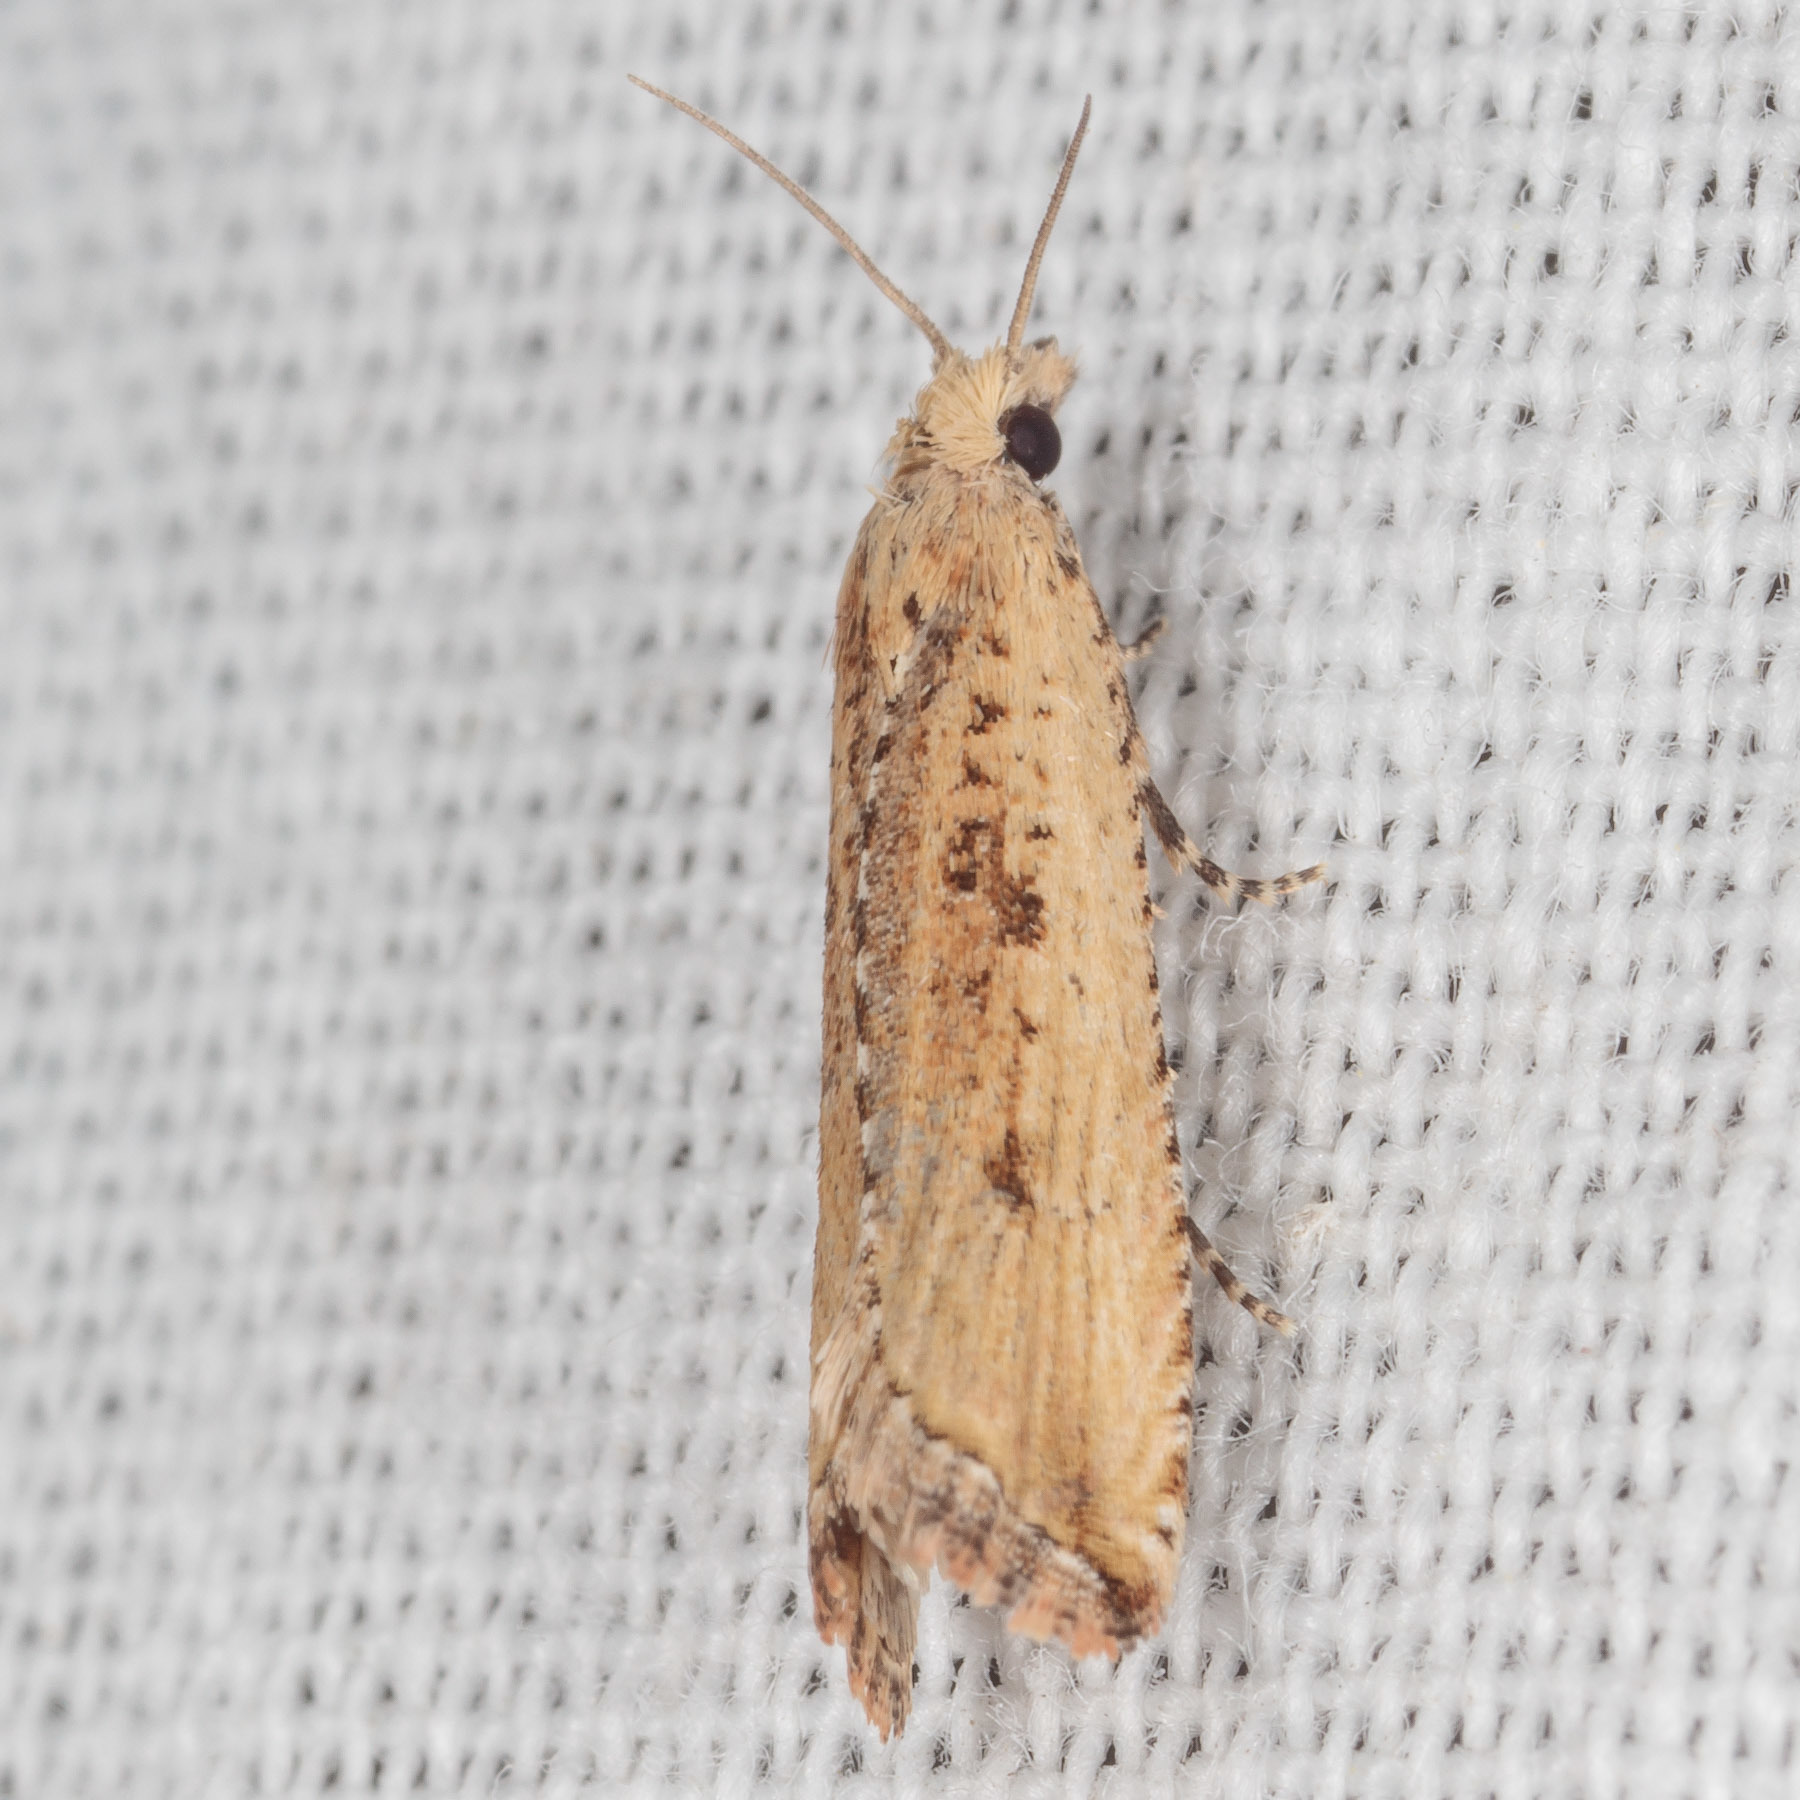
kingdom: Animalia
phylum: Arthropoda
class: Insecta
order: Lepidoptera
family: Tortricidae
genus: Bactra
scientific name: Bactra verutana
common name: Javelin moth
